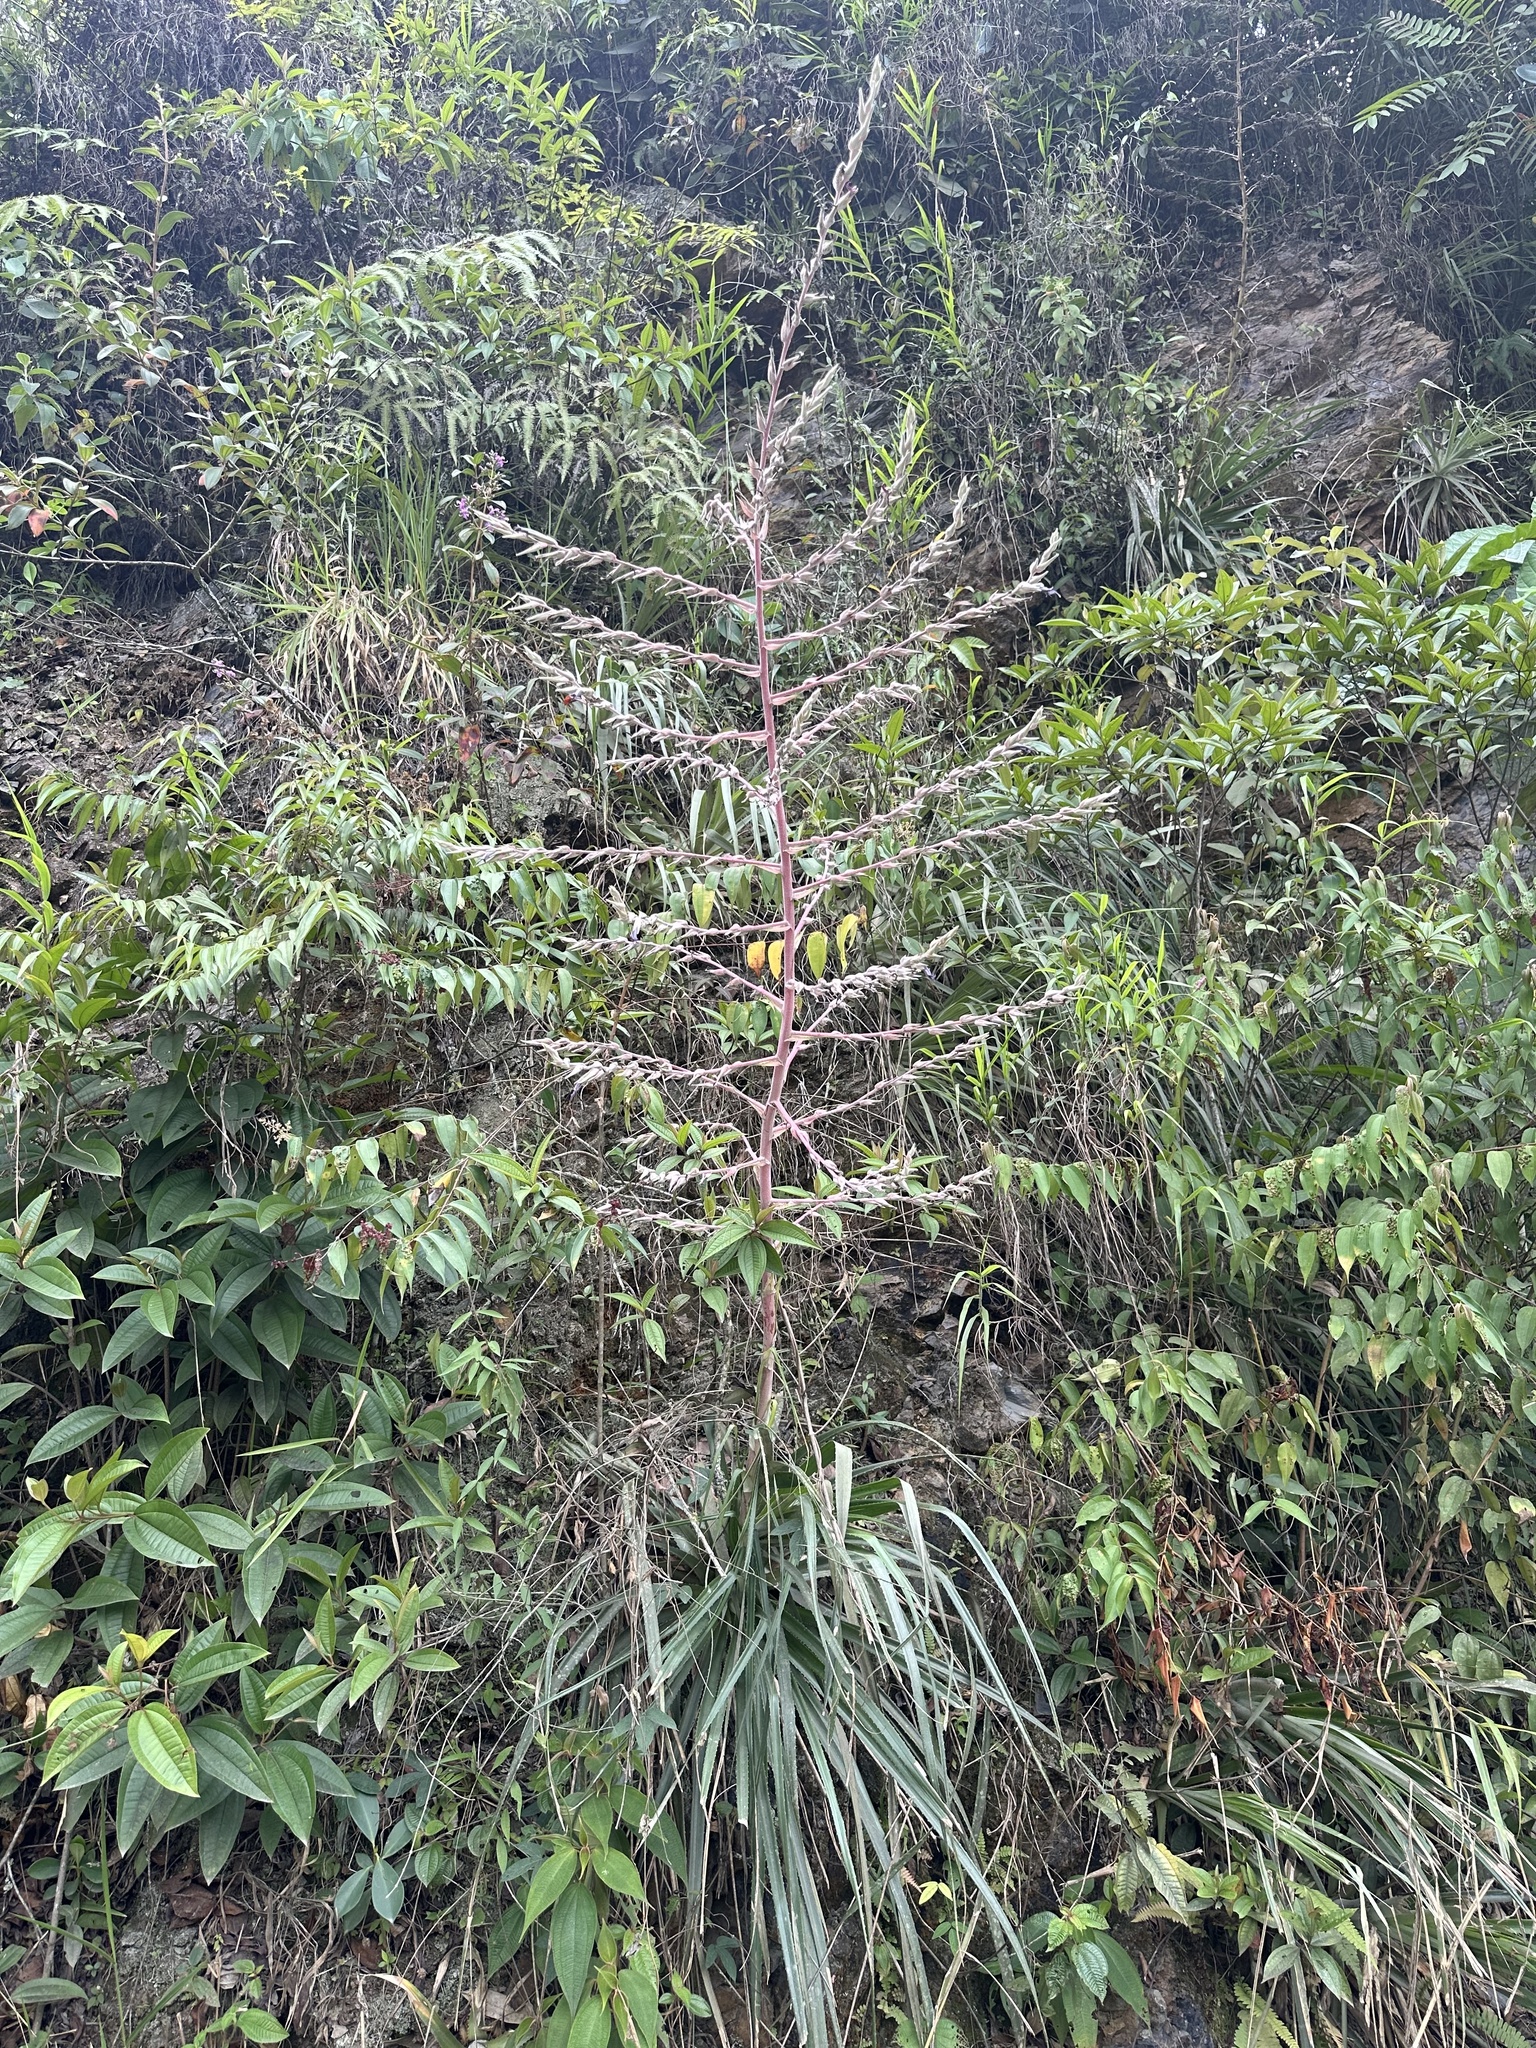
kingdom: Plantae
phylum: Tracheophyta
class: Liliopsida
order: Poales
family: Bromeliaceae
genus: Puya
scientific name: Puya floccosa
